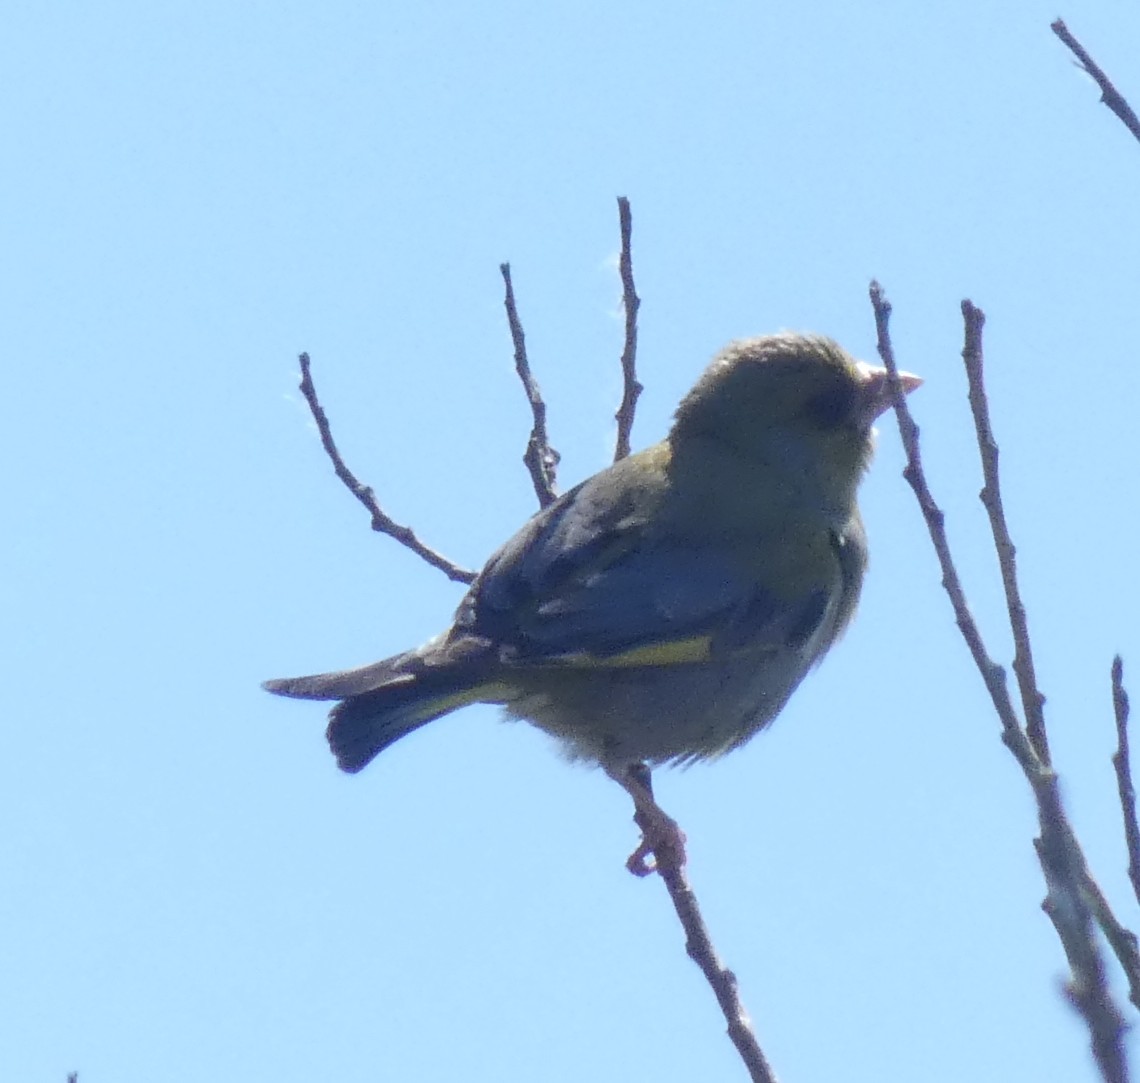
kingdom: Plantae
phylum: Tracheophyta
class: Liliopsida
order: Poales
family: Poaceae
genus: Chloris
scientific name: Chloris chloris
